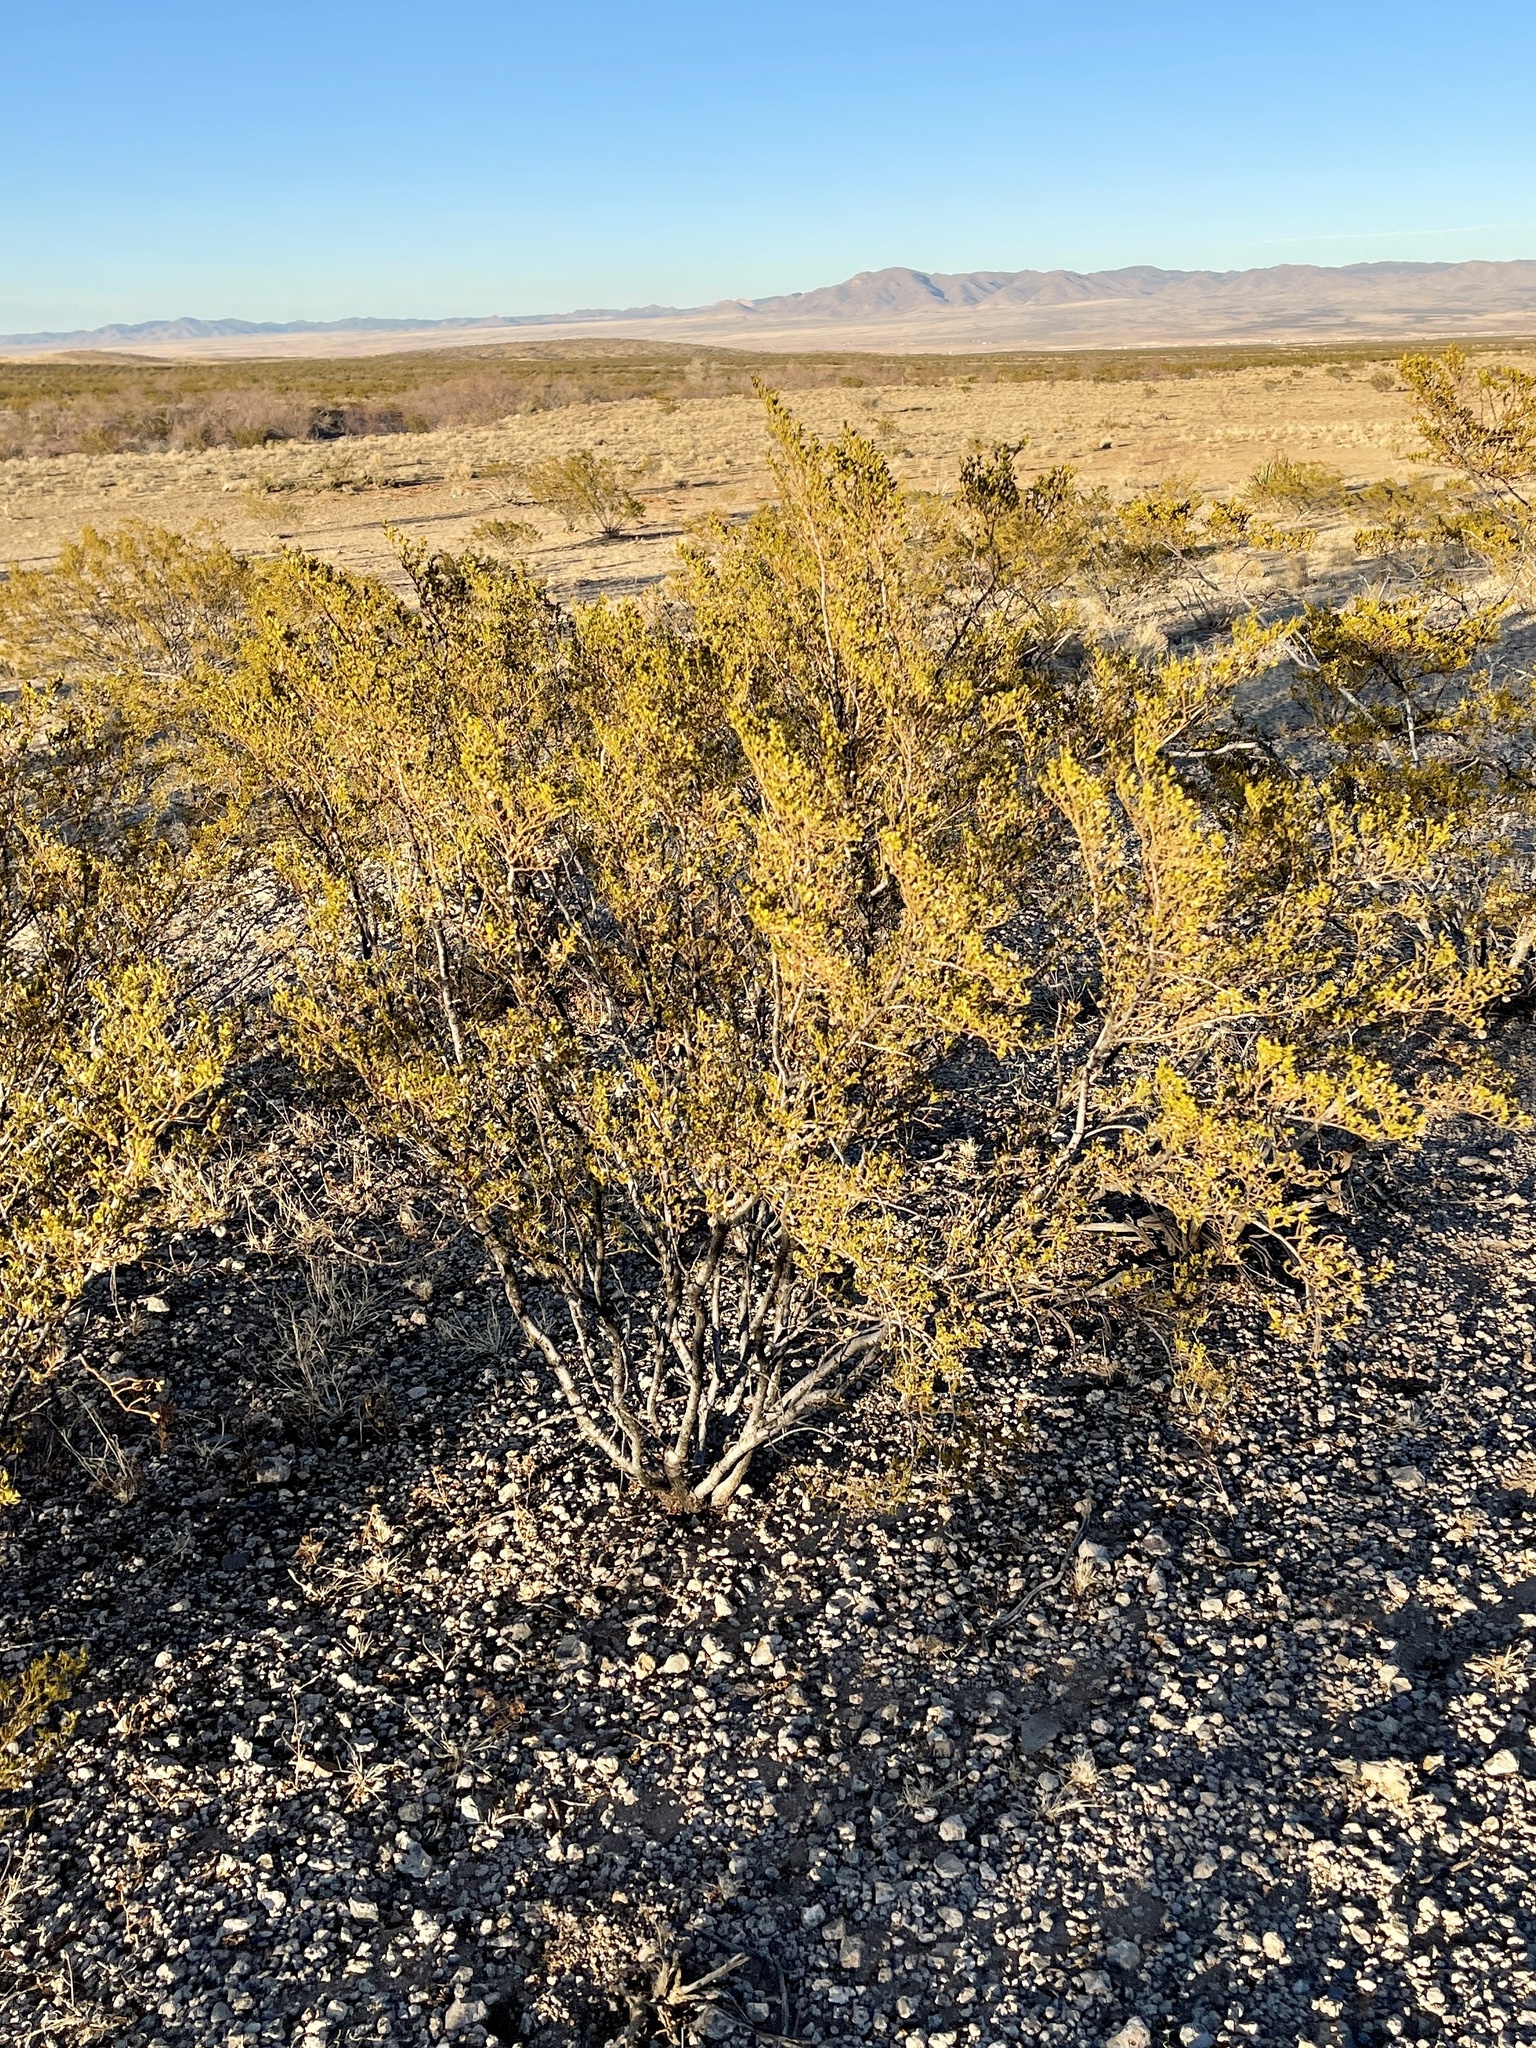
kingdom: Plantae
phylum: Tracheophyta
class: Magnoliopsida
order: Zygophyllales
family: Zygophyllaceae
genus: Larrea
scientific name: Larrea tridentata
